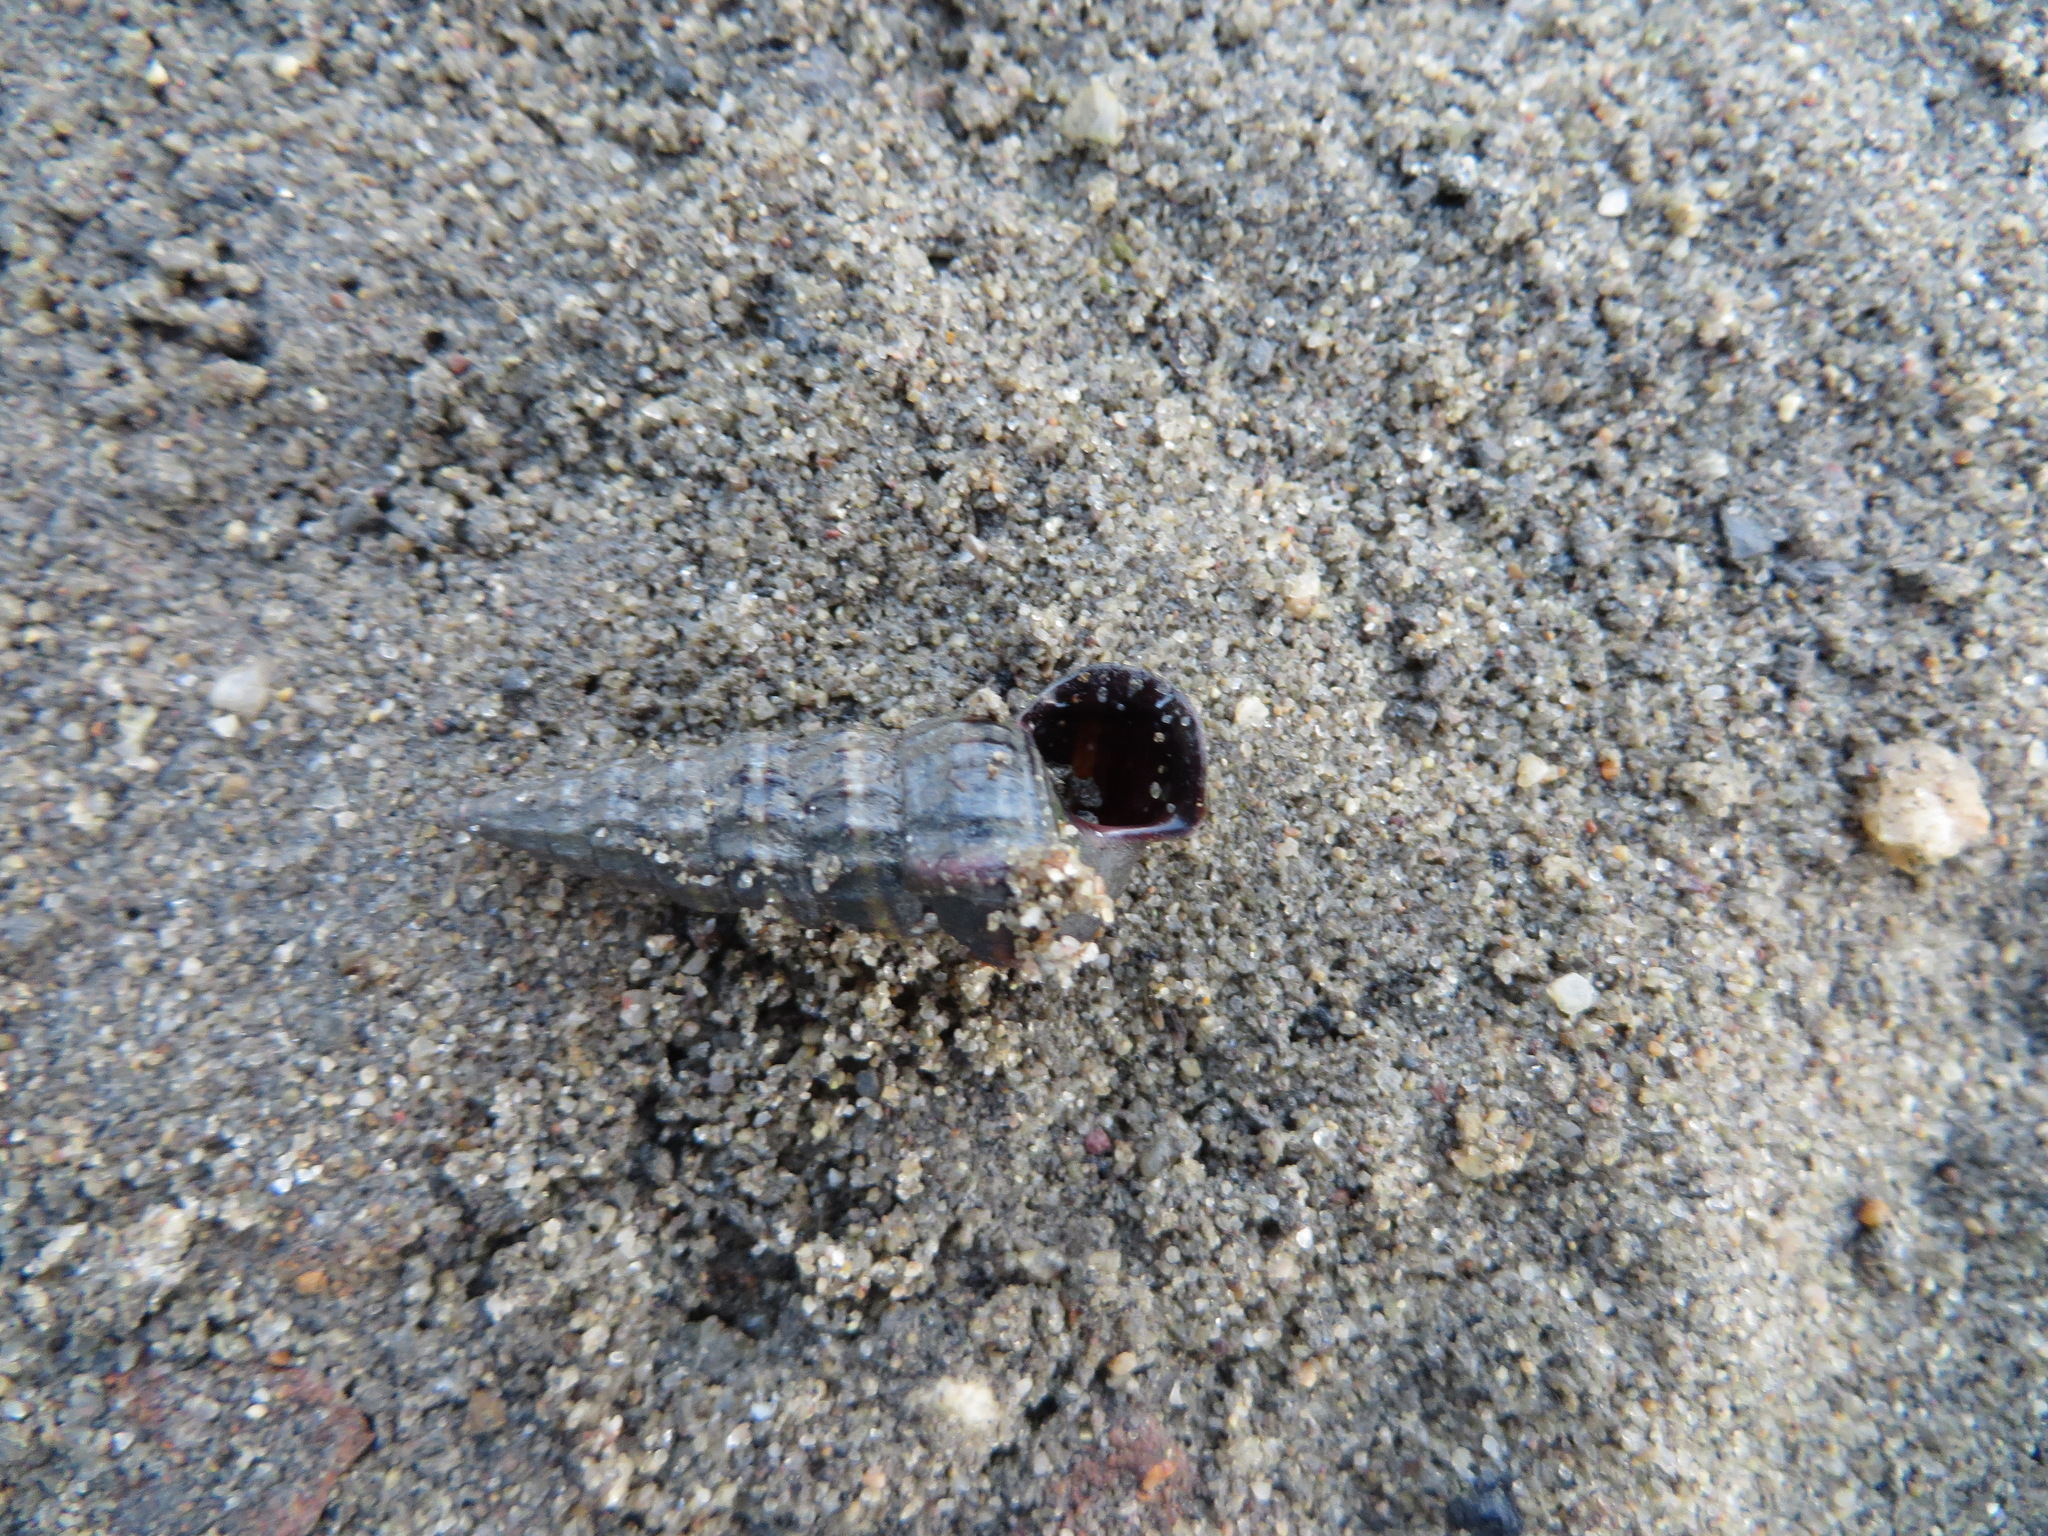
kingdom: Animalia
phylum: Mollusca
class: Gastropoda
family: Potamididae
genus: Cerithideopsis
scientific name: Cerithideopsis californica
